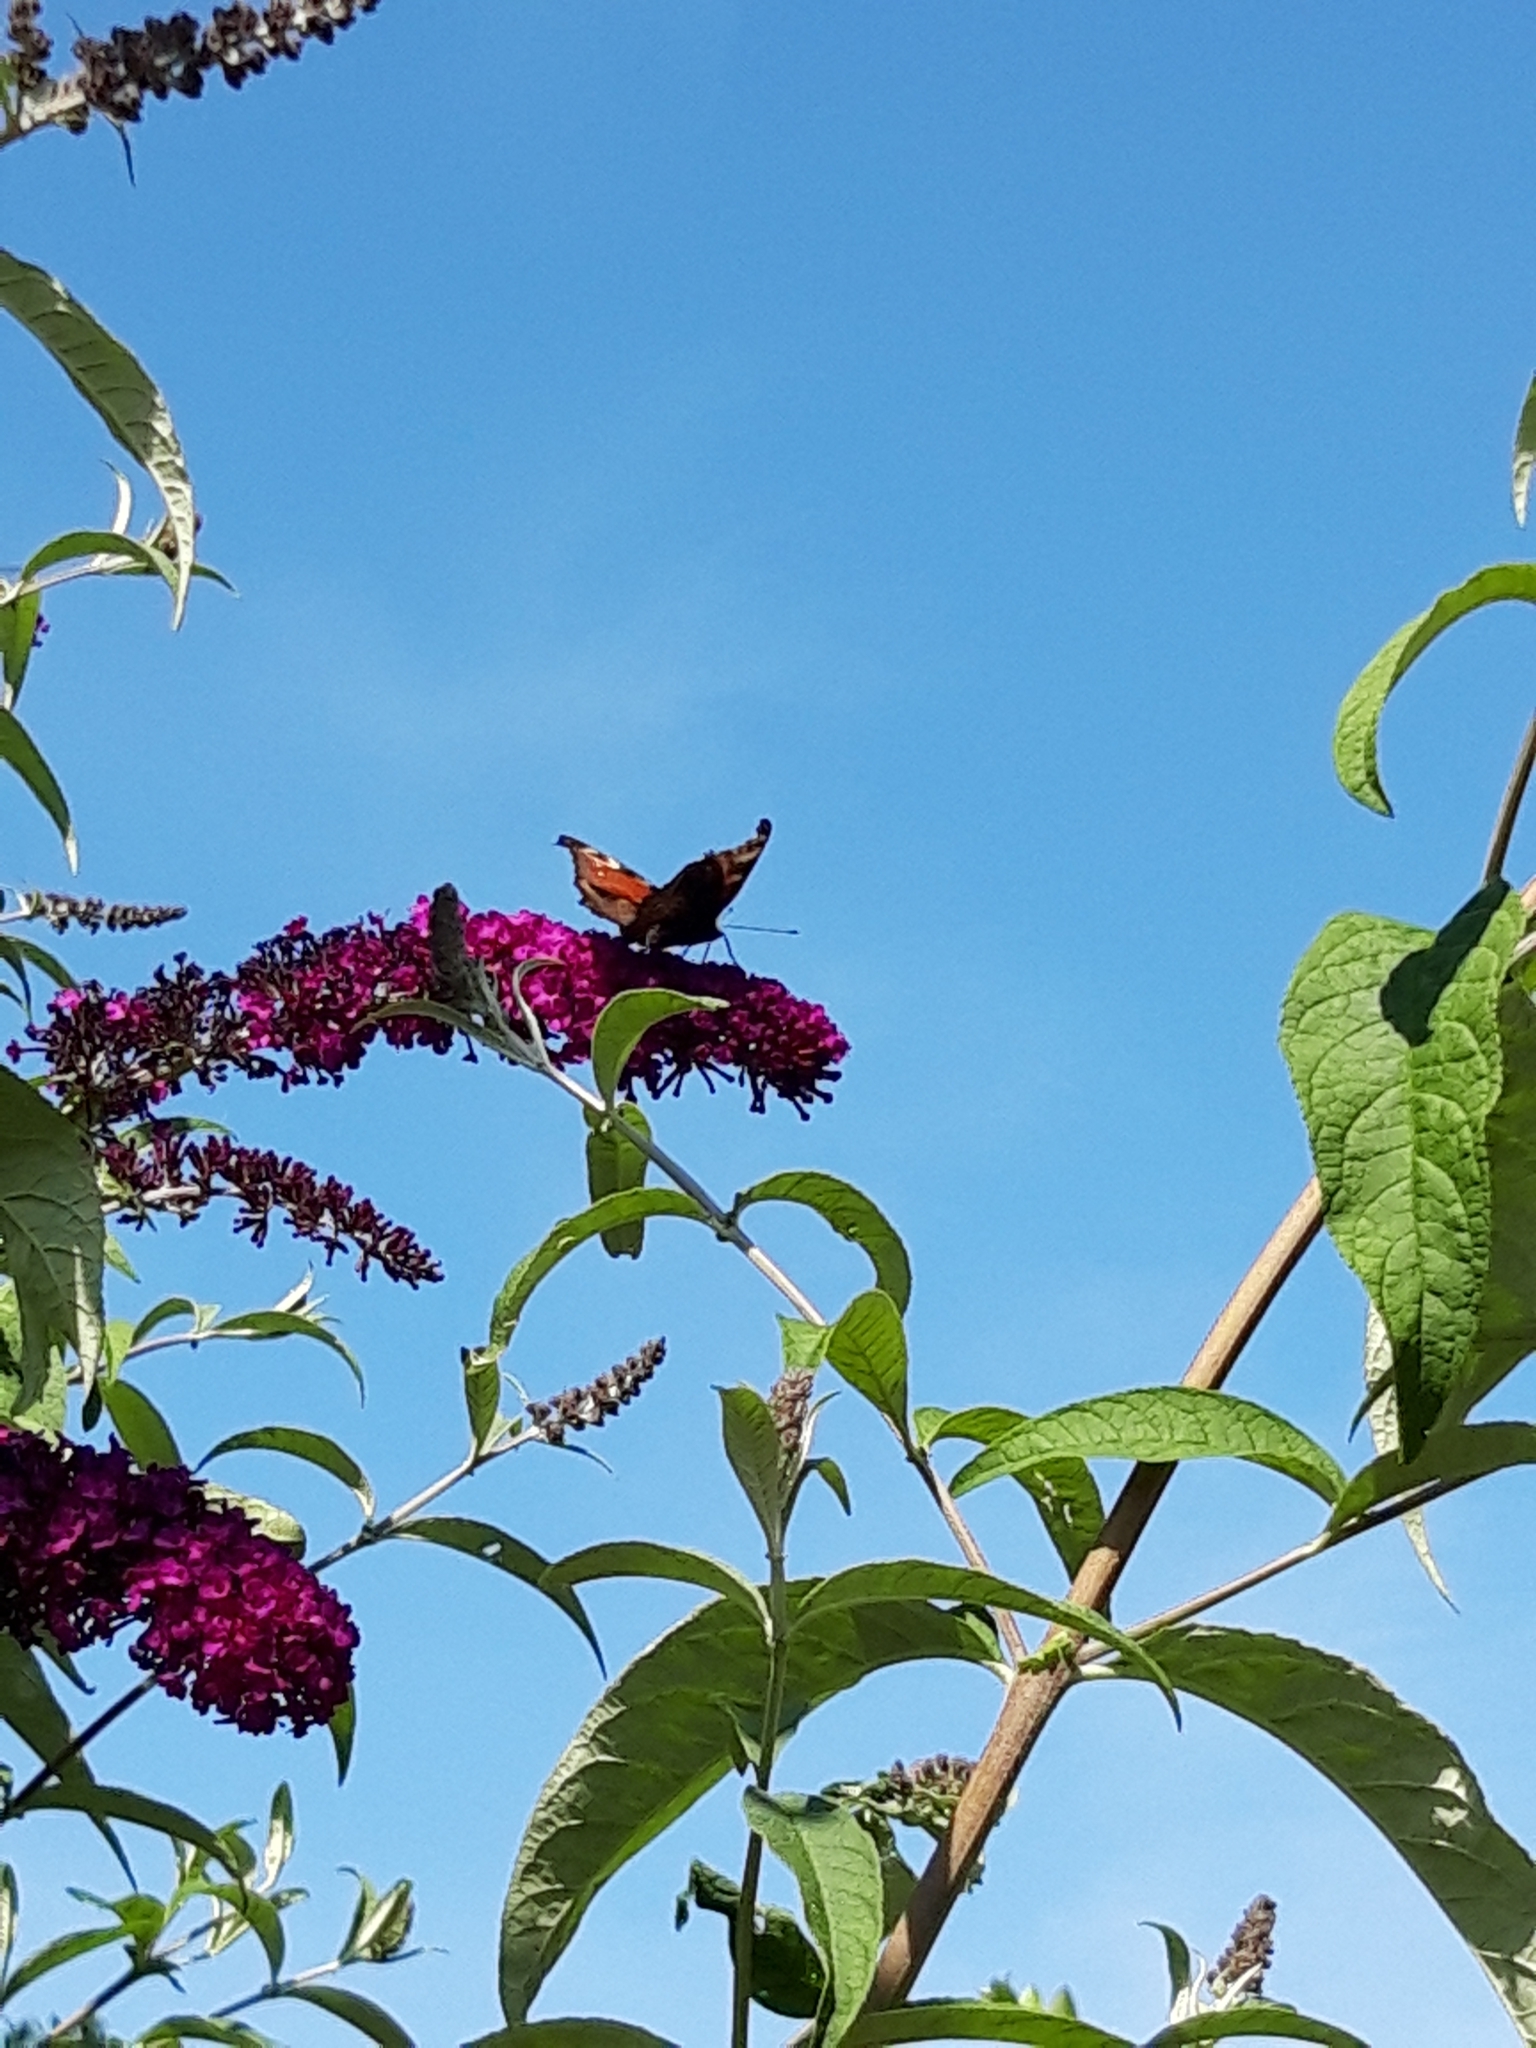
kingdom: Animalia
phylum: Arthropoda
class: Insecta
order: Lepidoptera
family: Nymphalidae
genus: Aglais
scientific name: Aglais io
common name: Peacock
